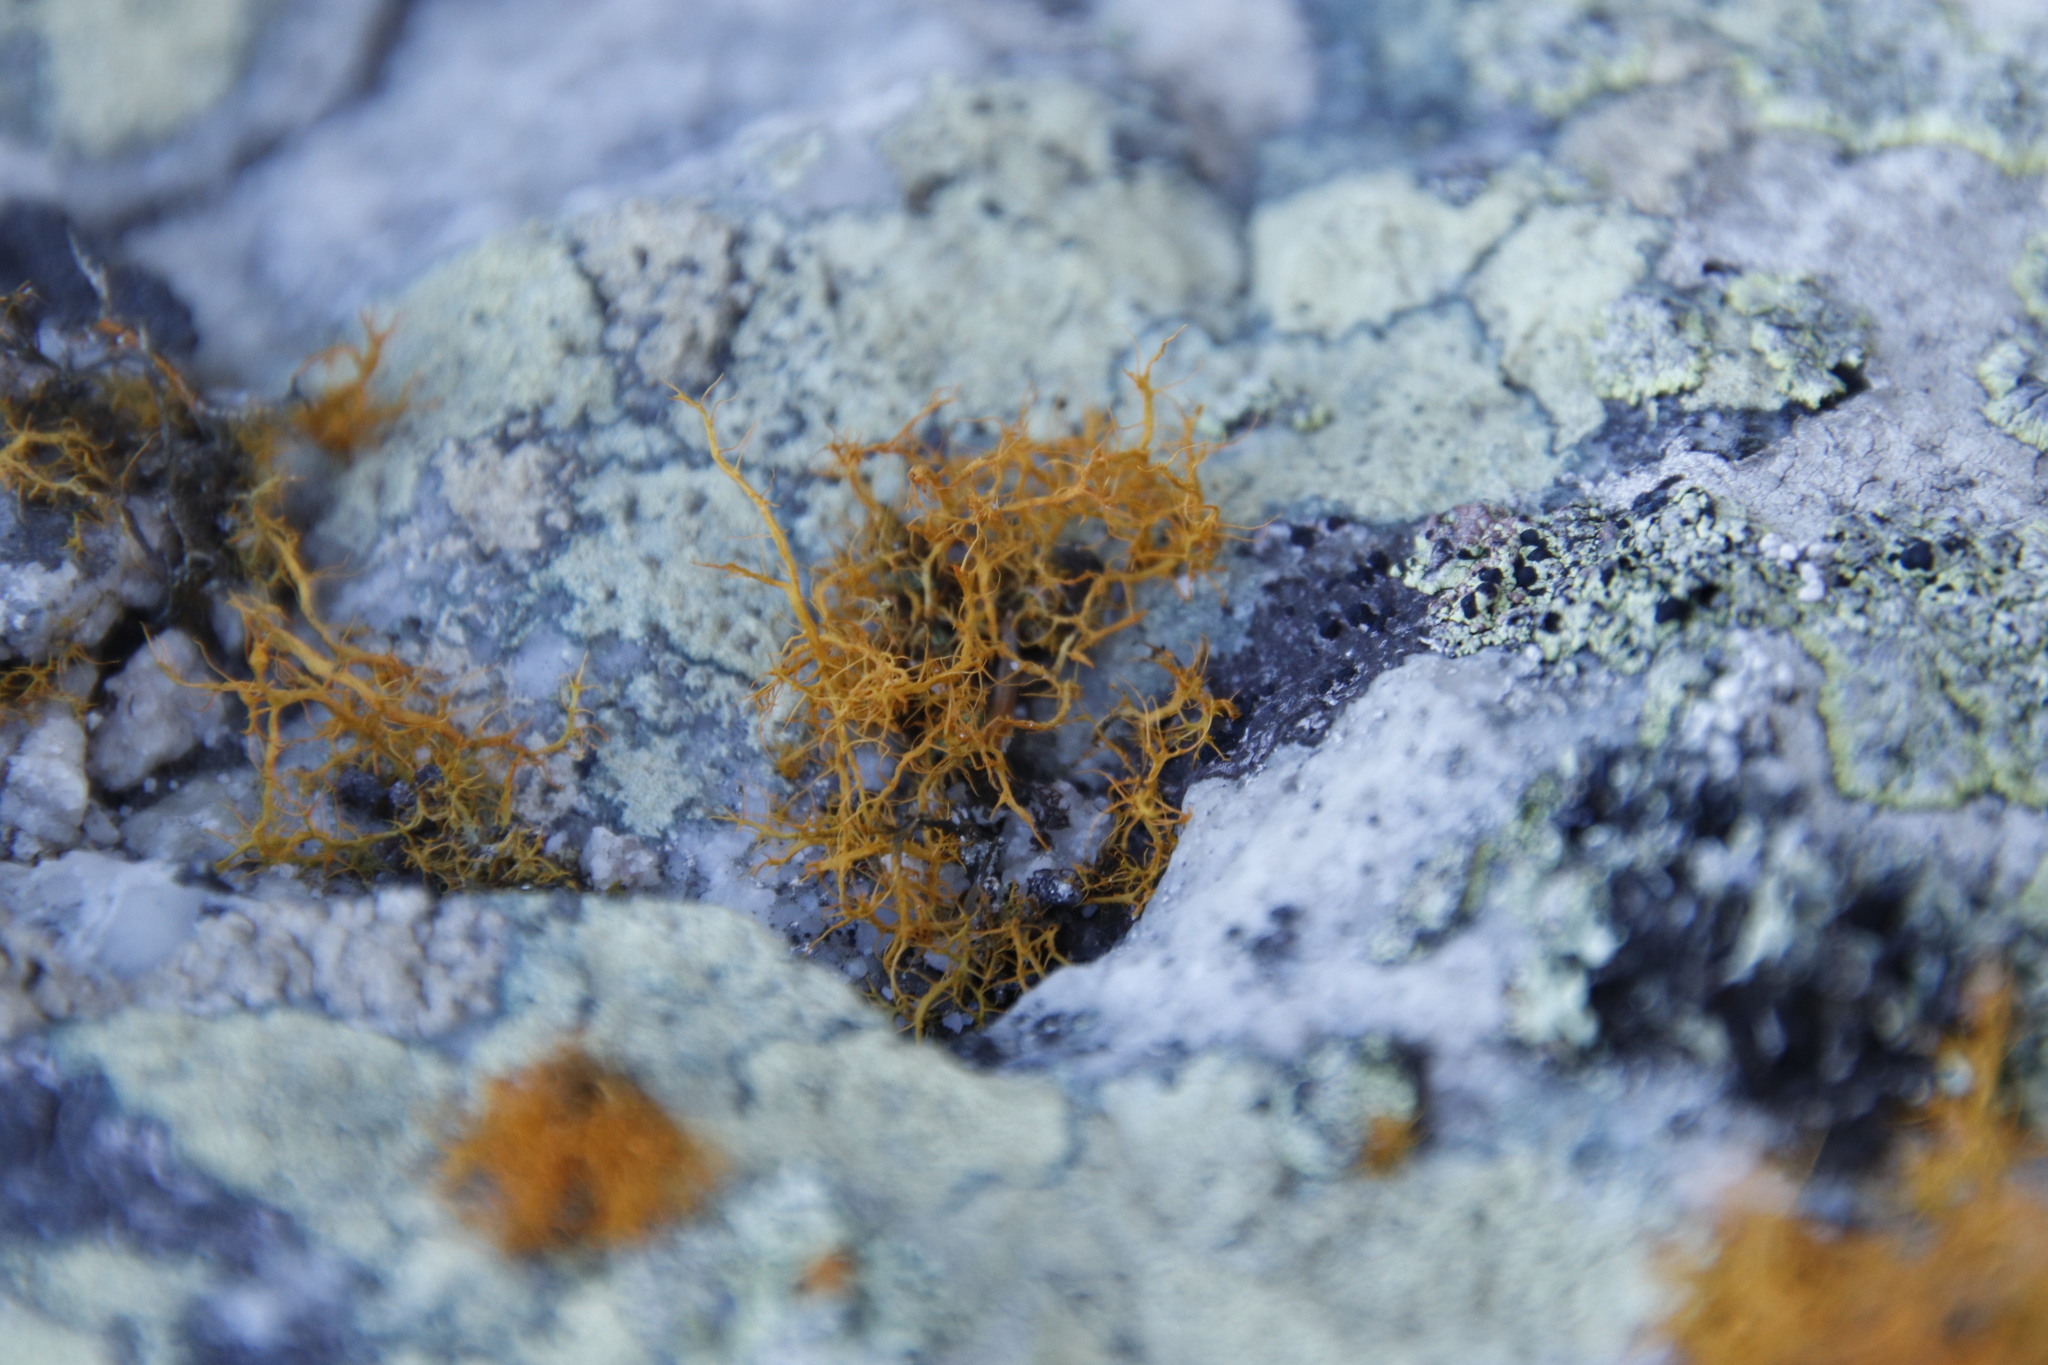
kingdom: Fungi
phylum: Ascomycota
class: Lecanoromycetes
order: Teloschistales
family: Teloschistaceae
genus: Teloschistes
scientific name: Teloschistes capensis
